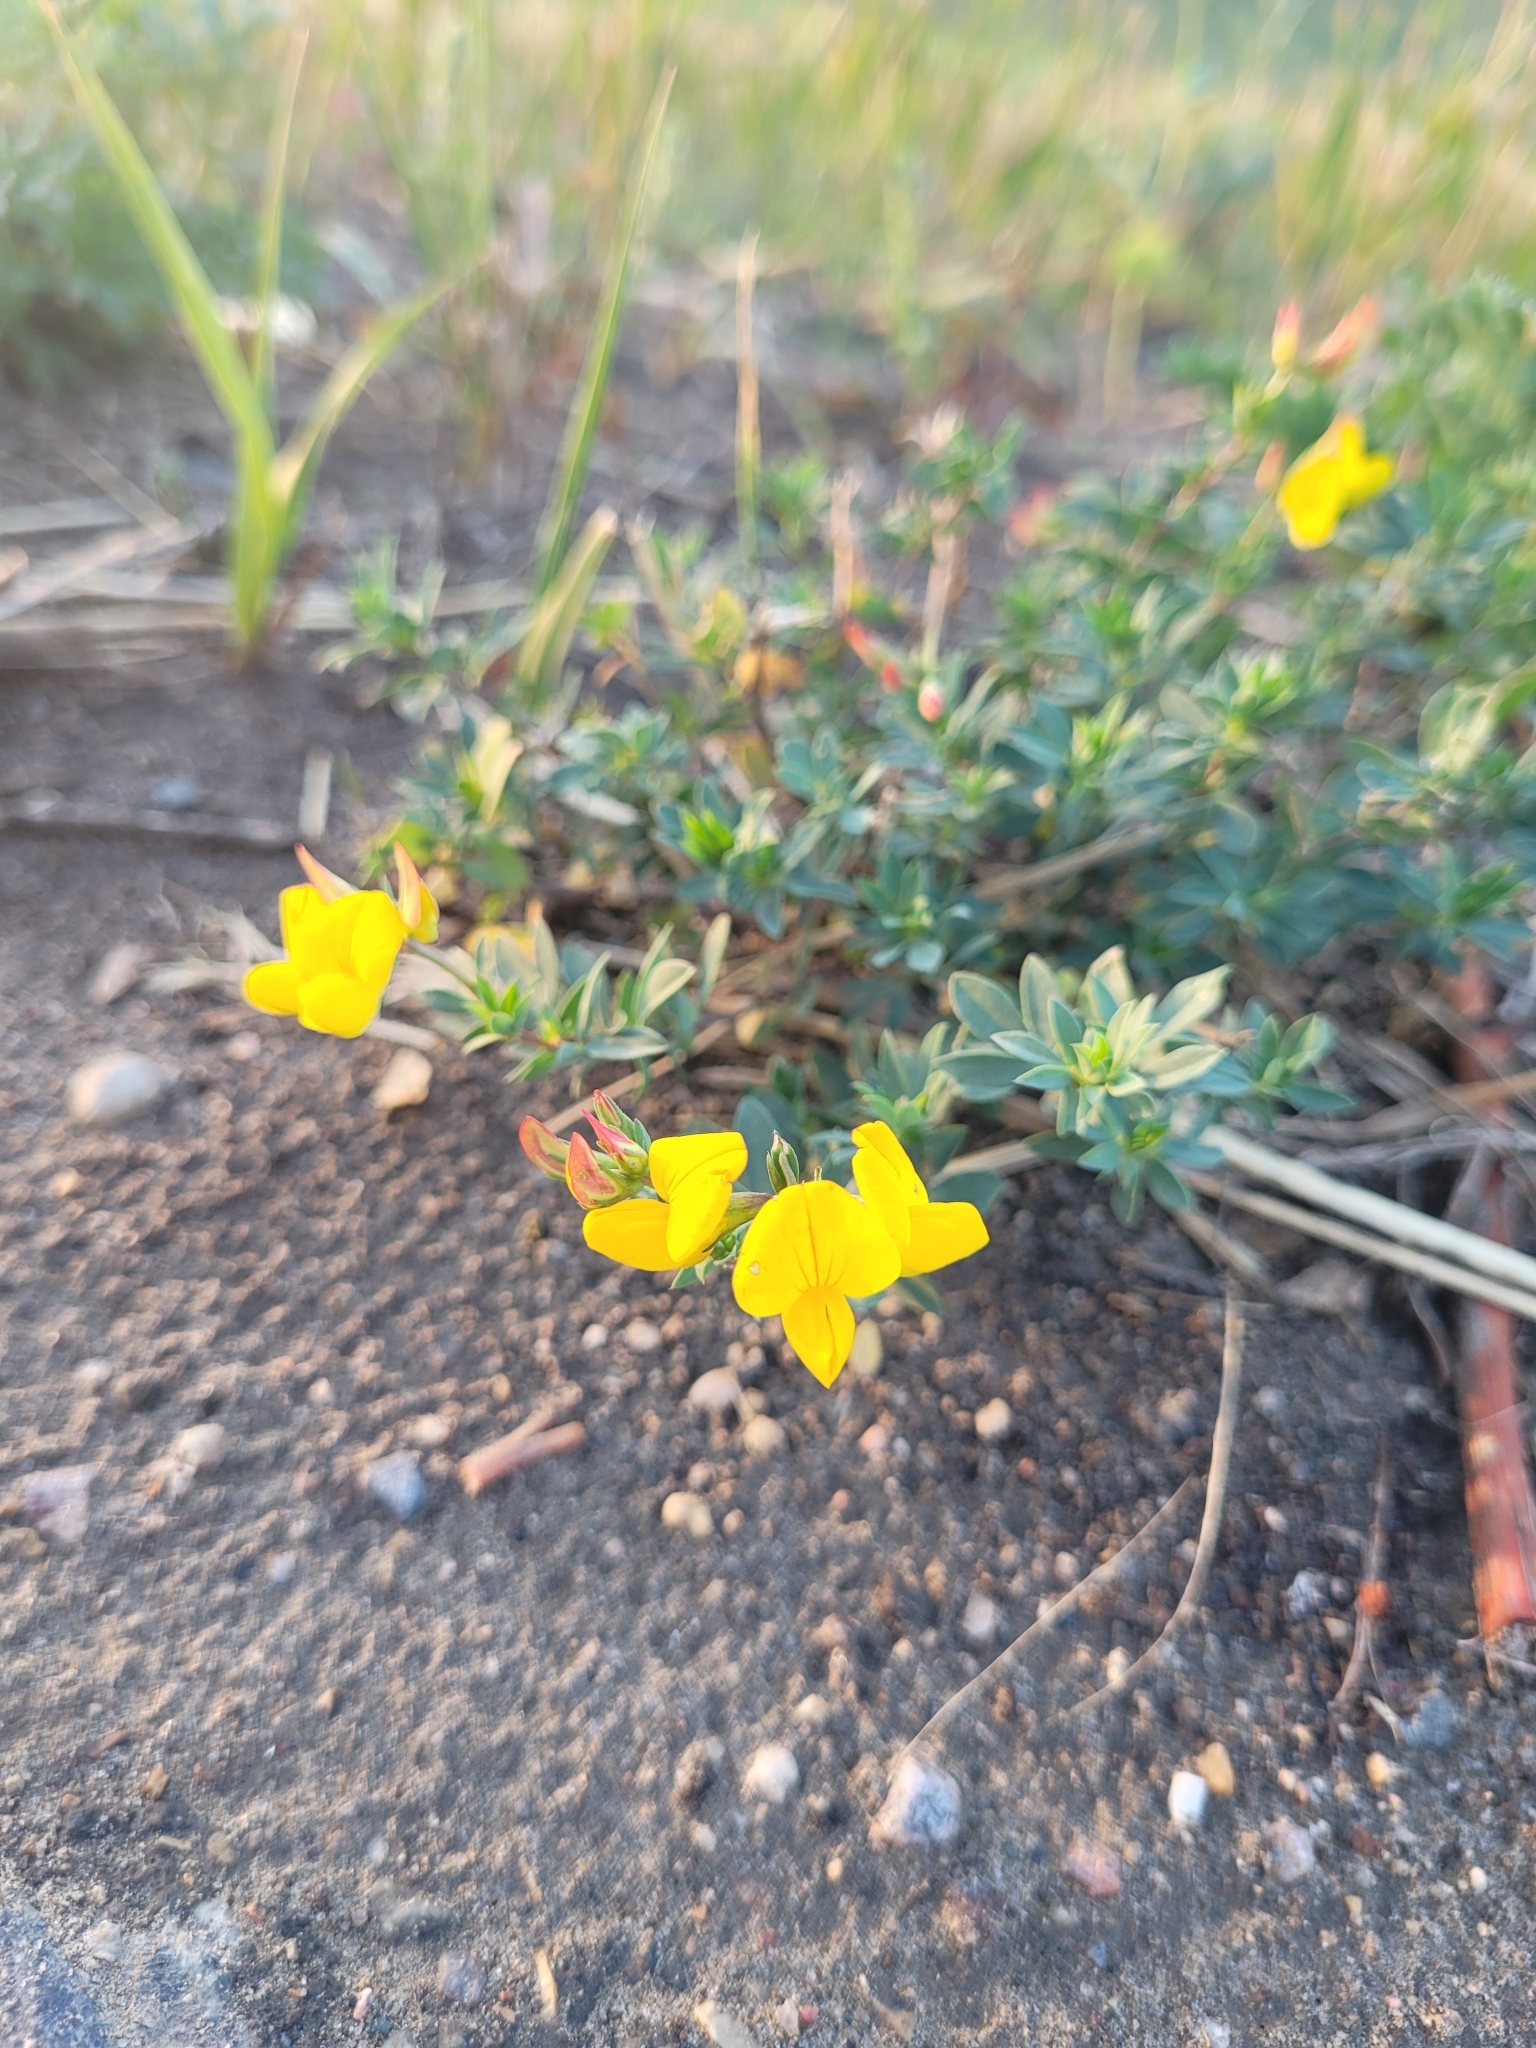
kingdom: Plantae
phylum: Tracheophyta
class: Magnoliopsida
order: Fabales
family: Fabaceae
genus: Lotus
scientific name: Lotus corniculatus
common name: Common bird's-foot-trefoil
